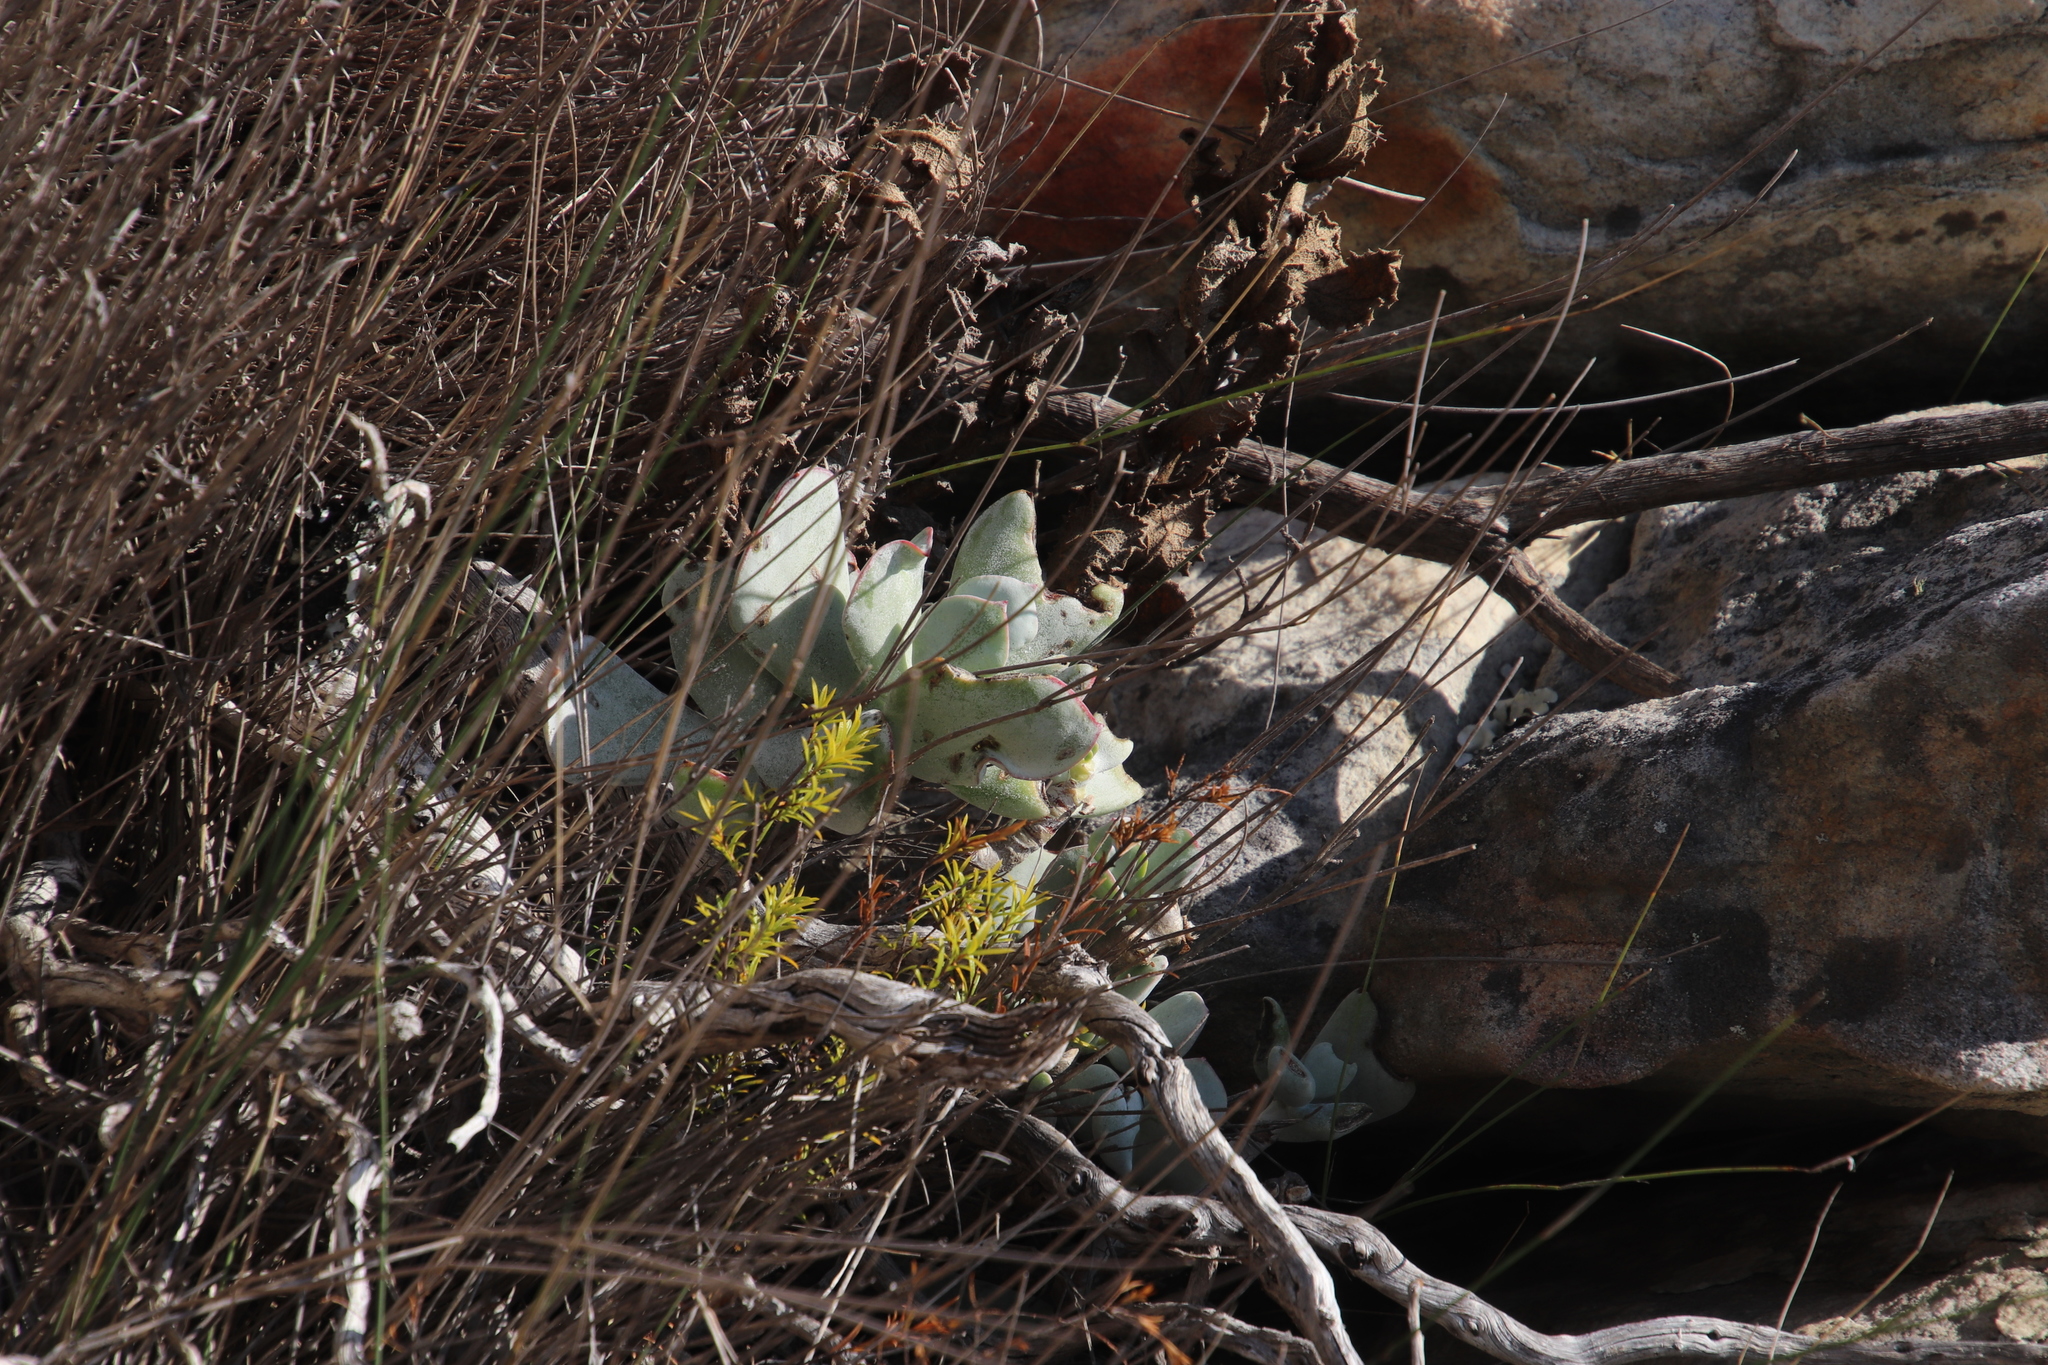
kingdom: Plantae
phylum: Tracheophyta
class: Magnoliopsida
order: Saxifragales
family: Crassulaceae
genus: Cotyledon
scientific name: Cotyledon orbiculata
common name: Pig's ear
